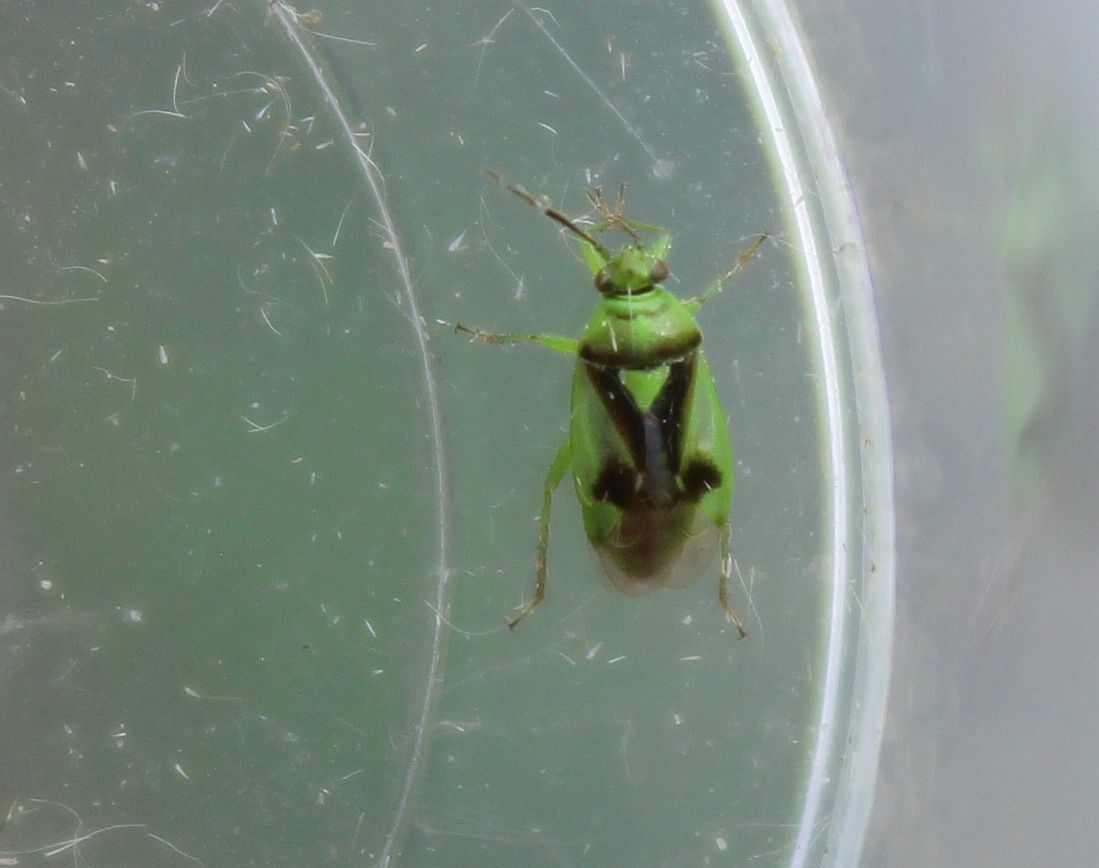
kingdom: Animalia
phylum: Arthropoda
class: Insecta
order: Hemiptera
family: Miridae
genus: Orthops
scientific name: Orthops campestris
